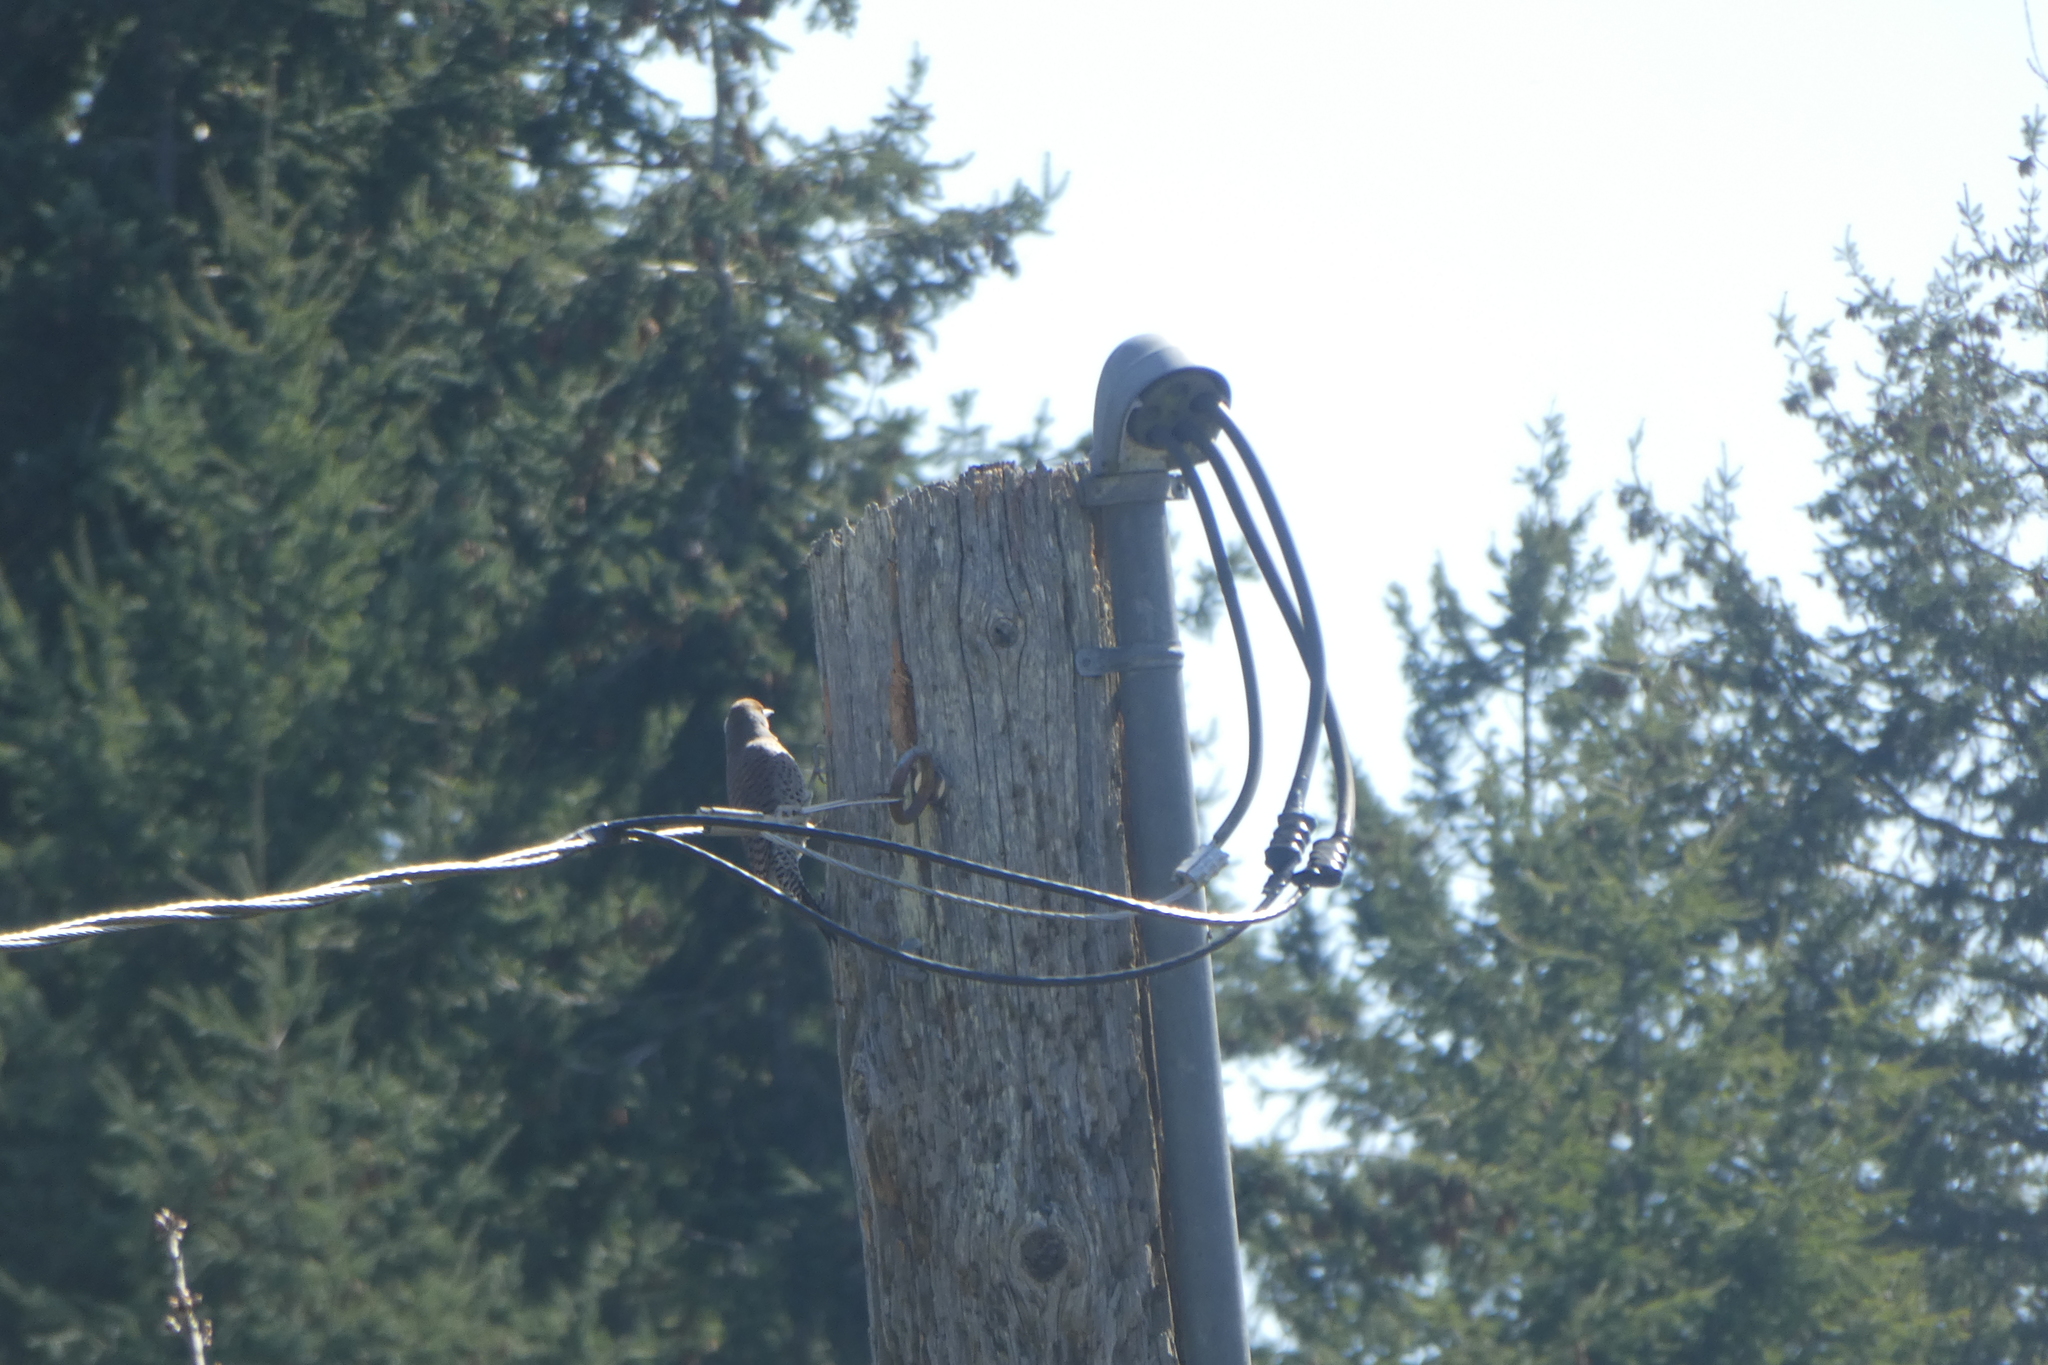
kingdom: Animalia
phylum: Chordata
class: Aves
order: Piciformes
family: Picidae
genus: Colaptes
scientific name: Colaptes auratus
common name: Northern flicker
